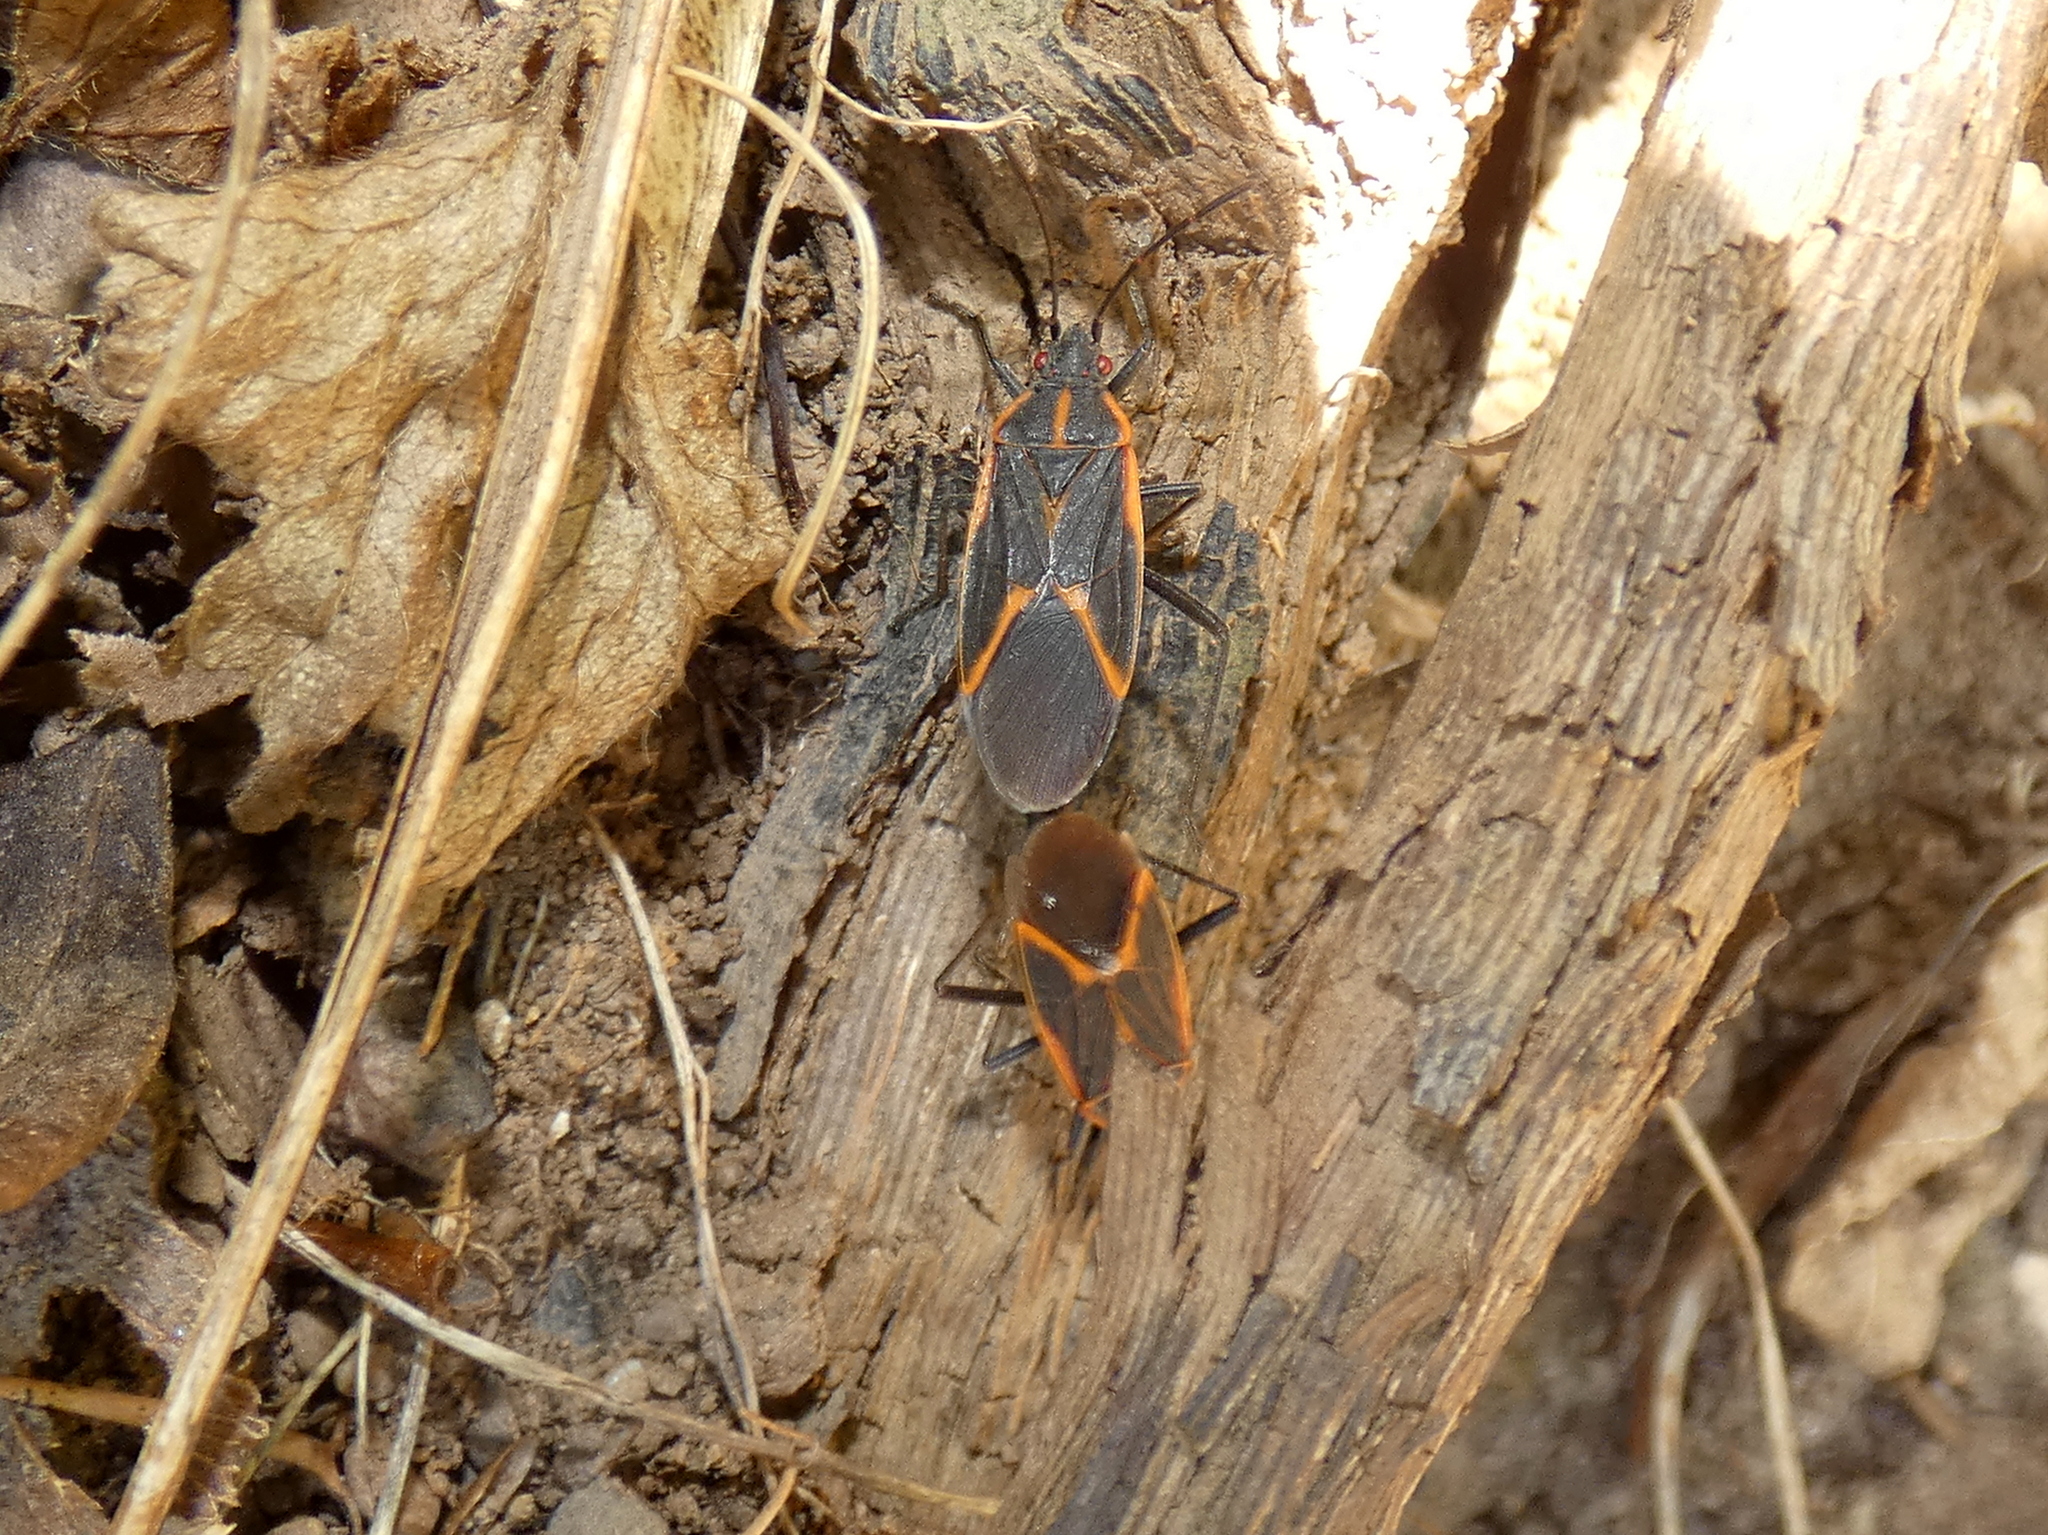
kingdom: Animalia
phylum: Arthropoda
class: Insecta
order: Hemiptera
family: Rhopalidae
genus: Boisea
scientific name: Boisea trivittata
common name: Boxelder bug
